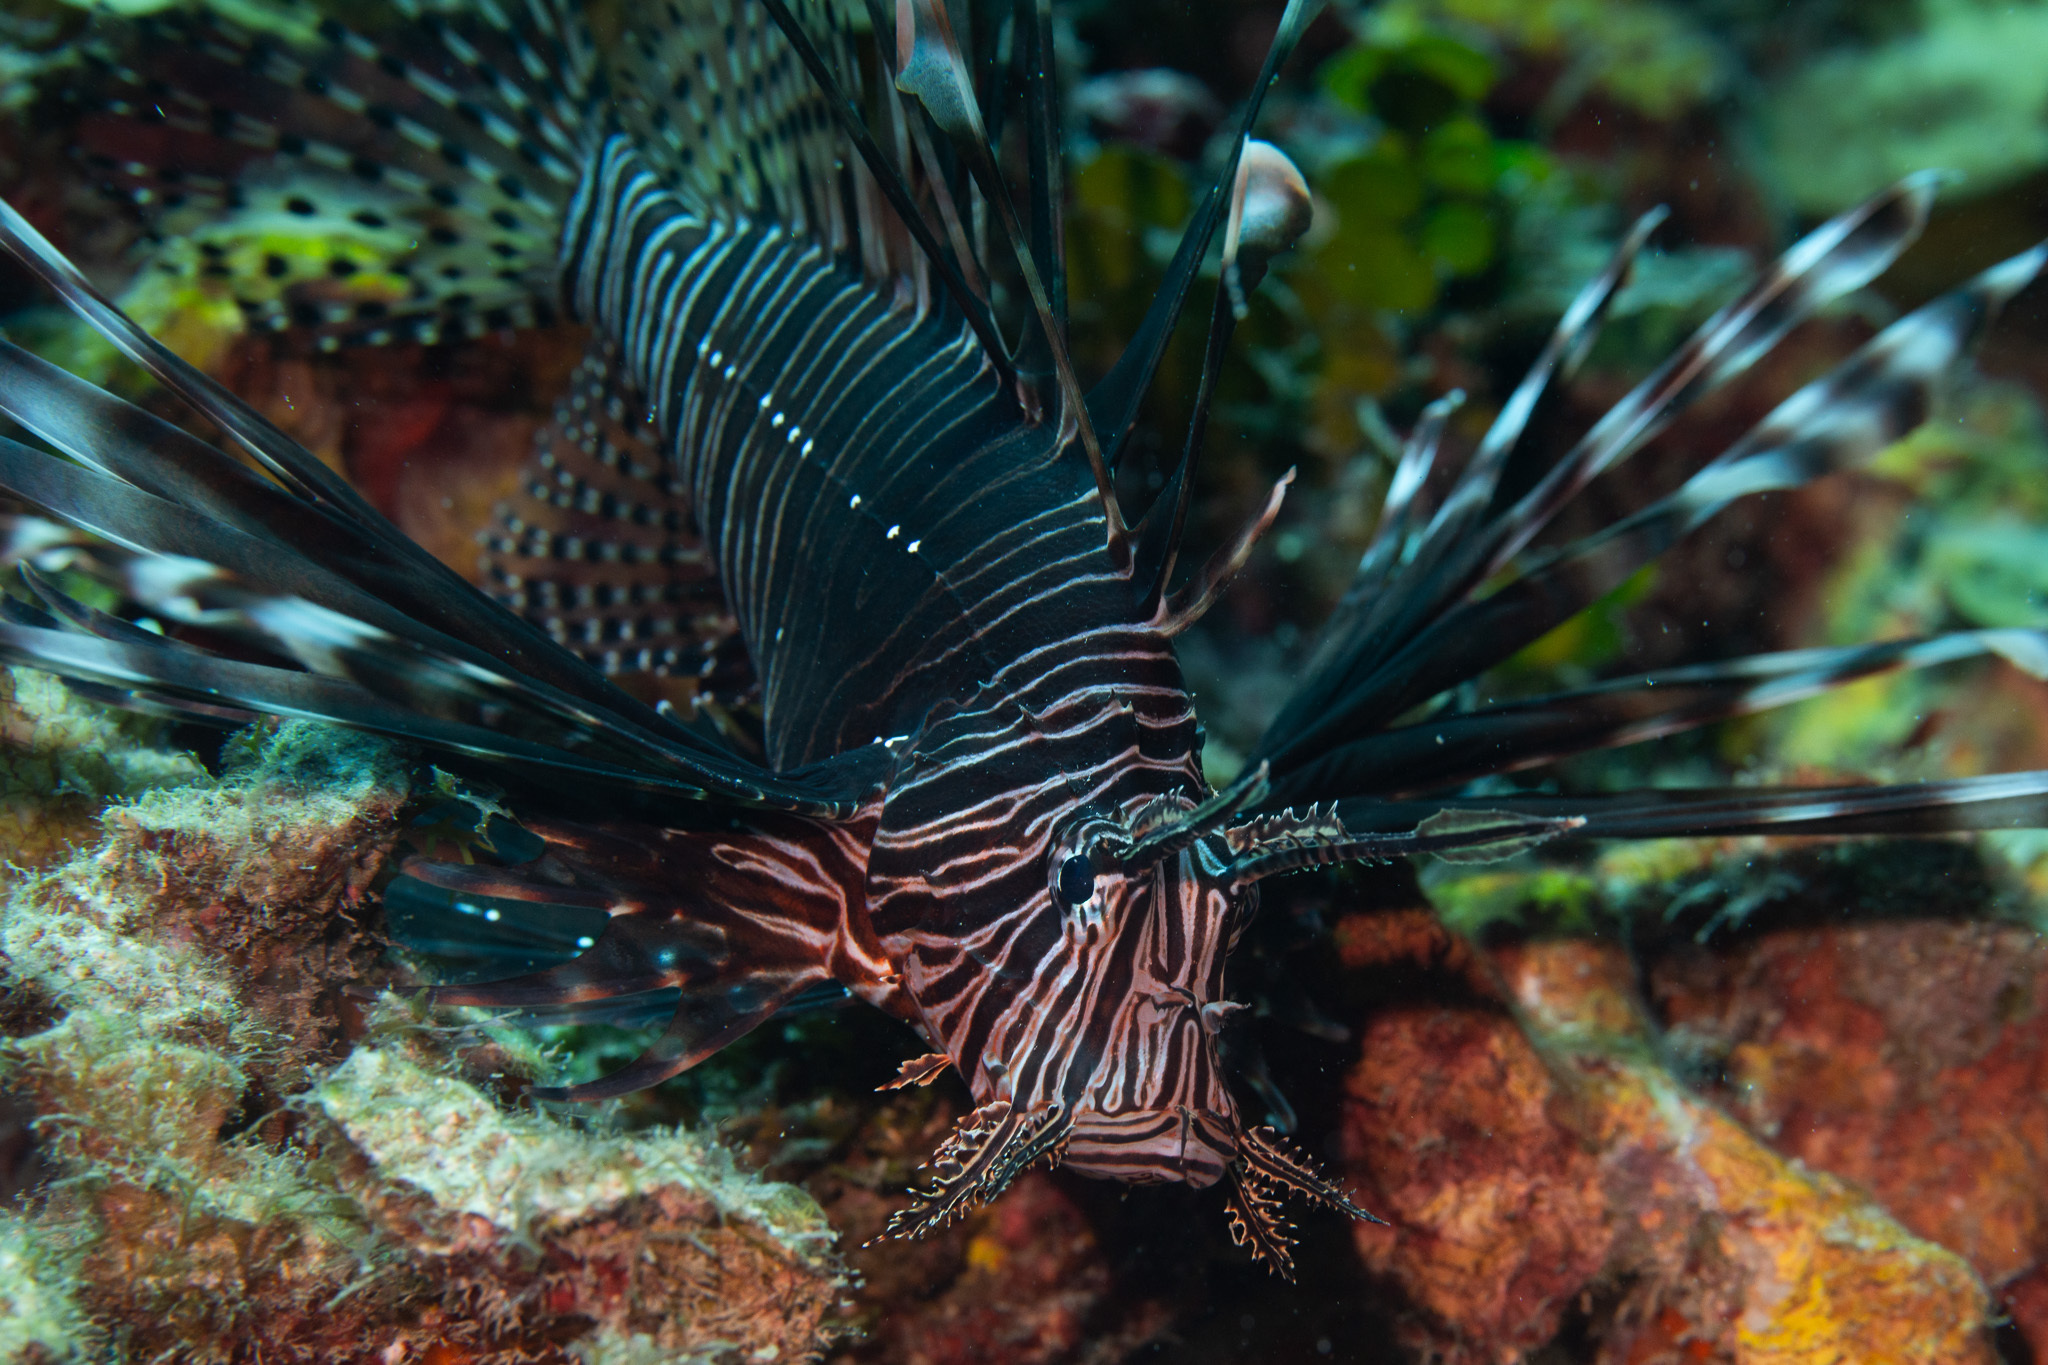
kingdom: Animalia
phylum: Chordata
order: Scorpaeniformes
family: Scorpaenidae
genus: Pterois
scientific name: Pterois volitans
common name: Lionfish
